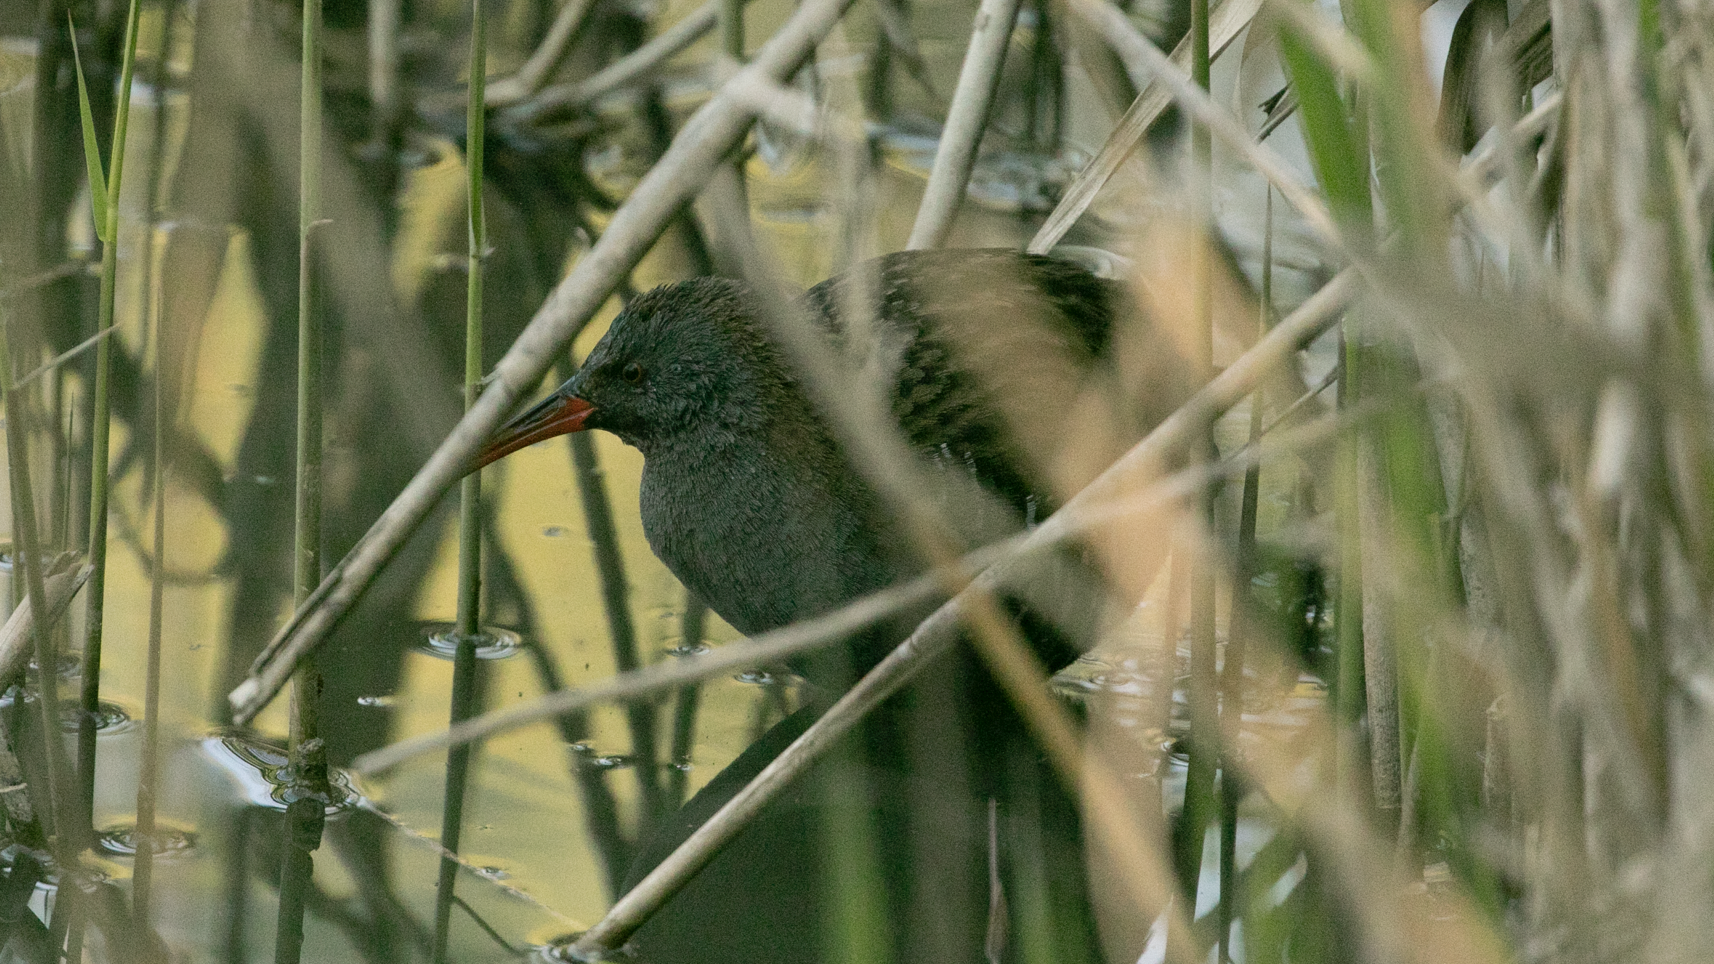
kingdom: Animalia
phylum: Chordata
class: Aves
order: Gruiformes
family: Rallidae
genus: Rallus
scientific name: Rallus aquaticus
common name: Water rail
